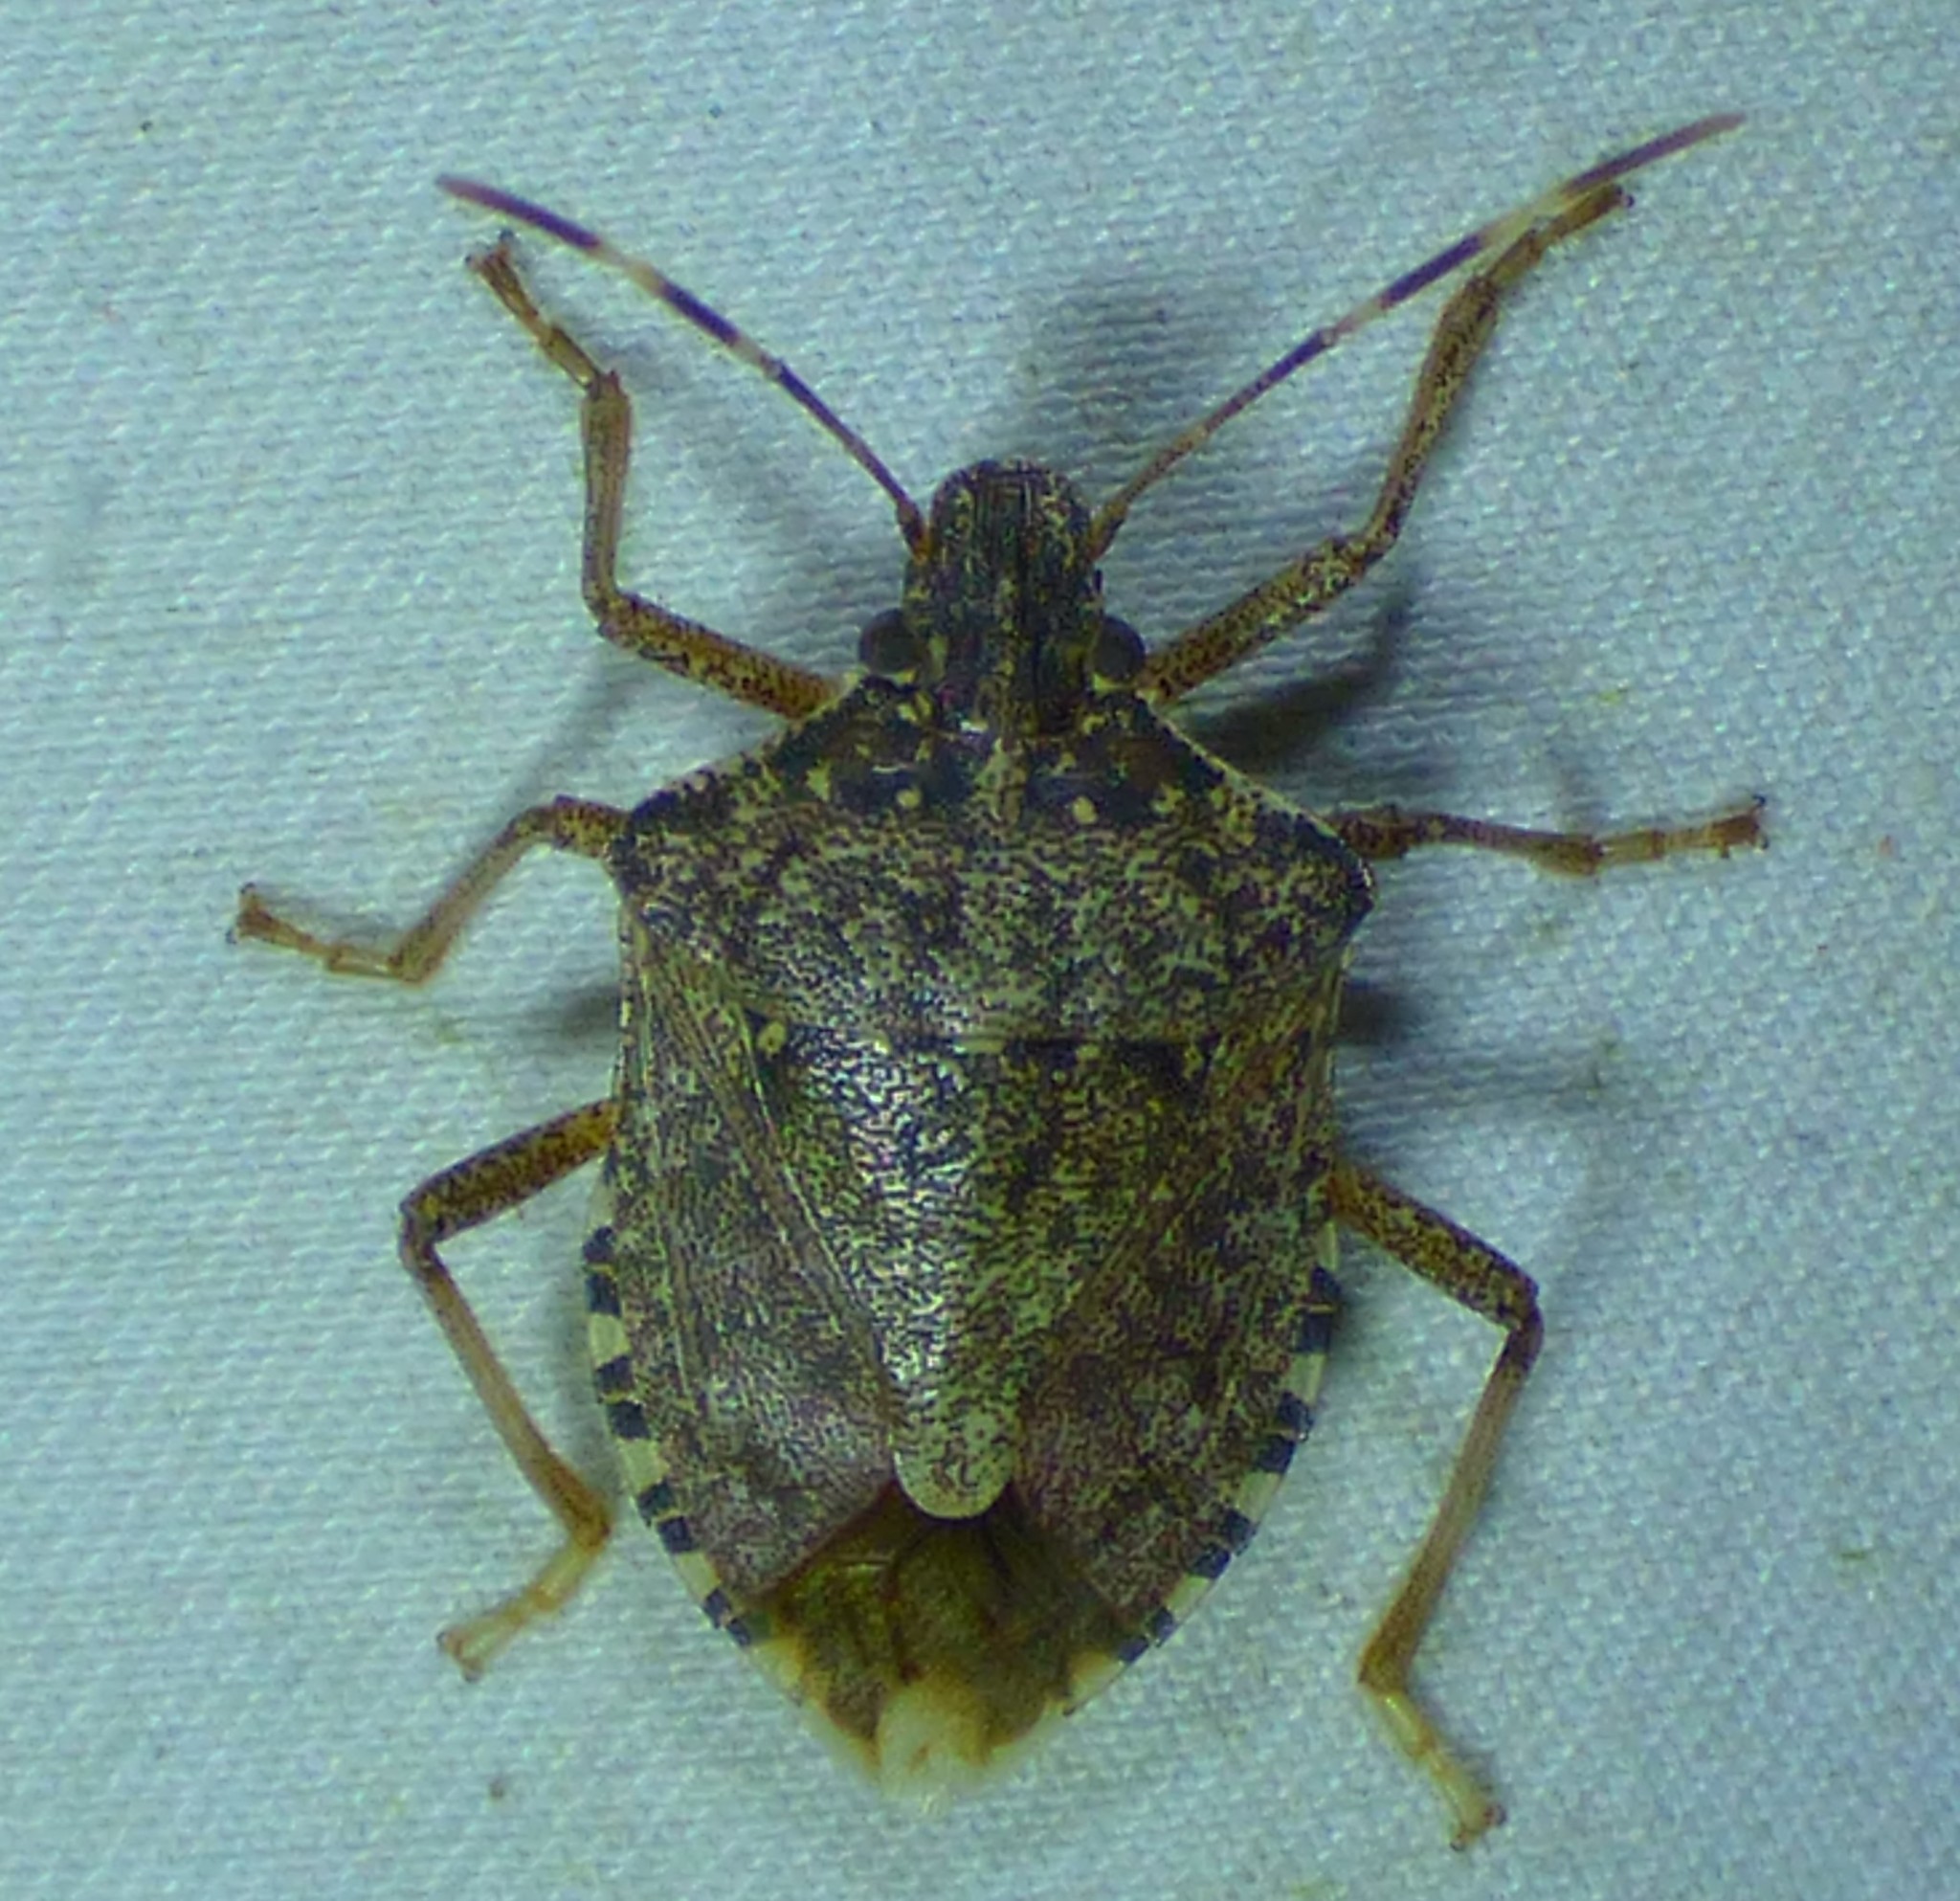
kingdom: Animalia
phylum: Arthropoda
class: Insecta
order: Hemiptera
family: Pentatomidae
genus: Halyomorpha
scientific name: Halyomorpha halys
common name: Brown marmorated stink bug
